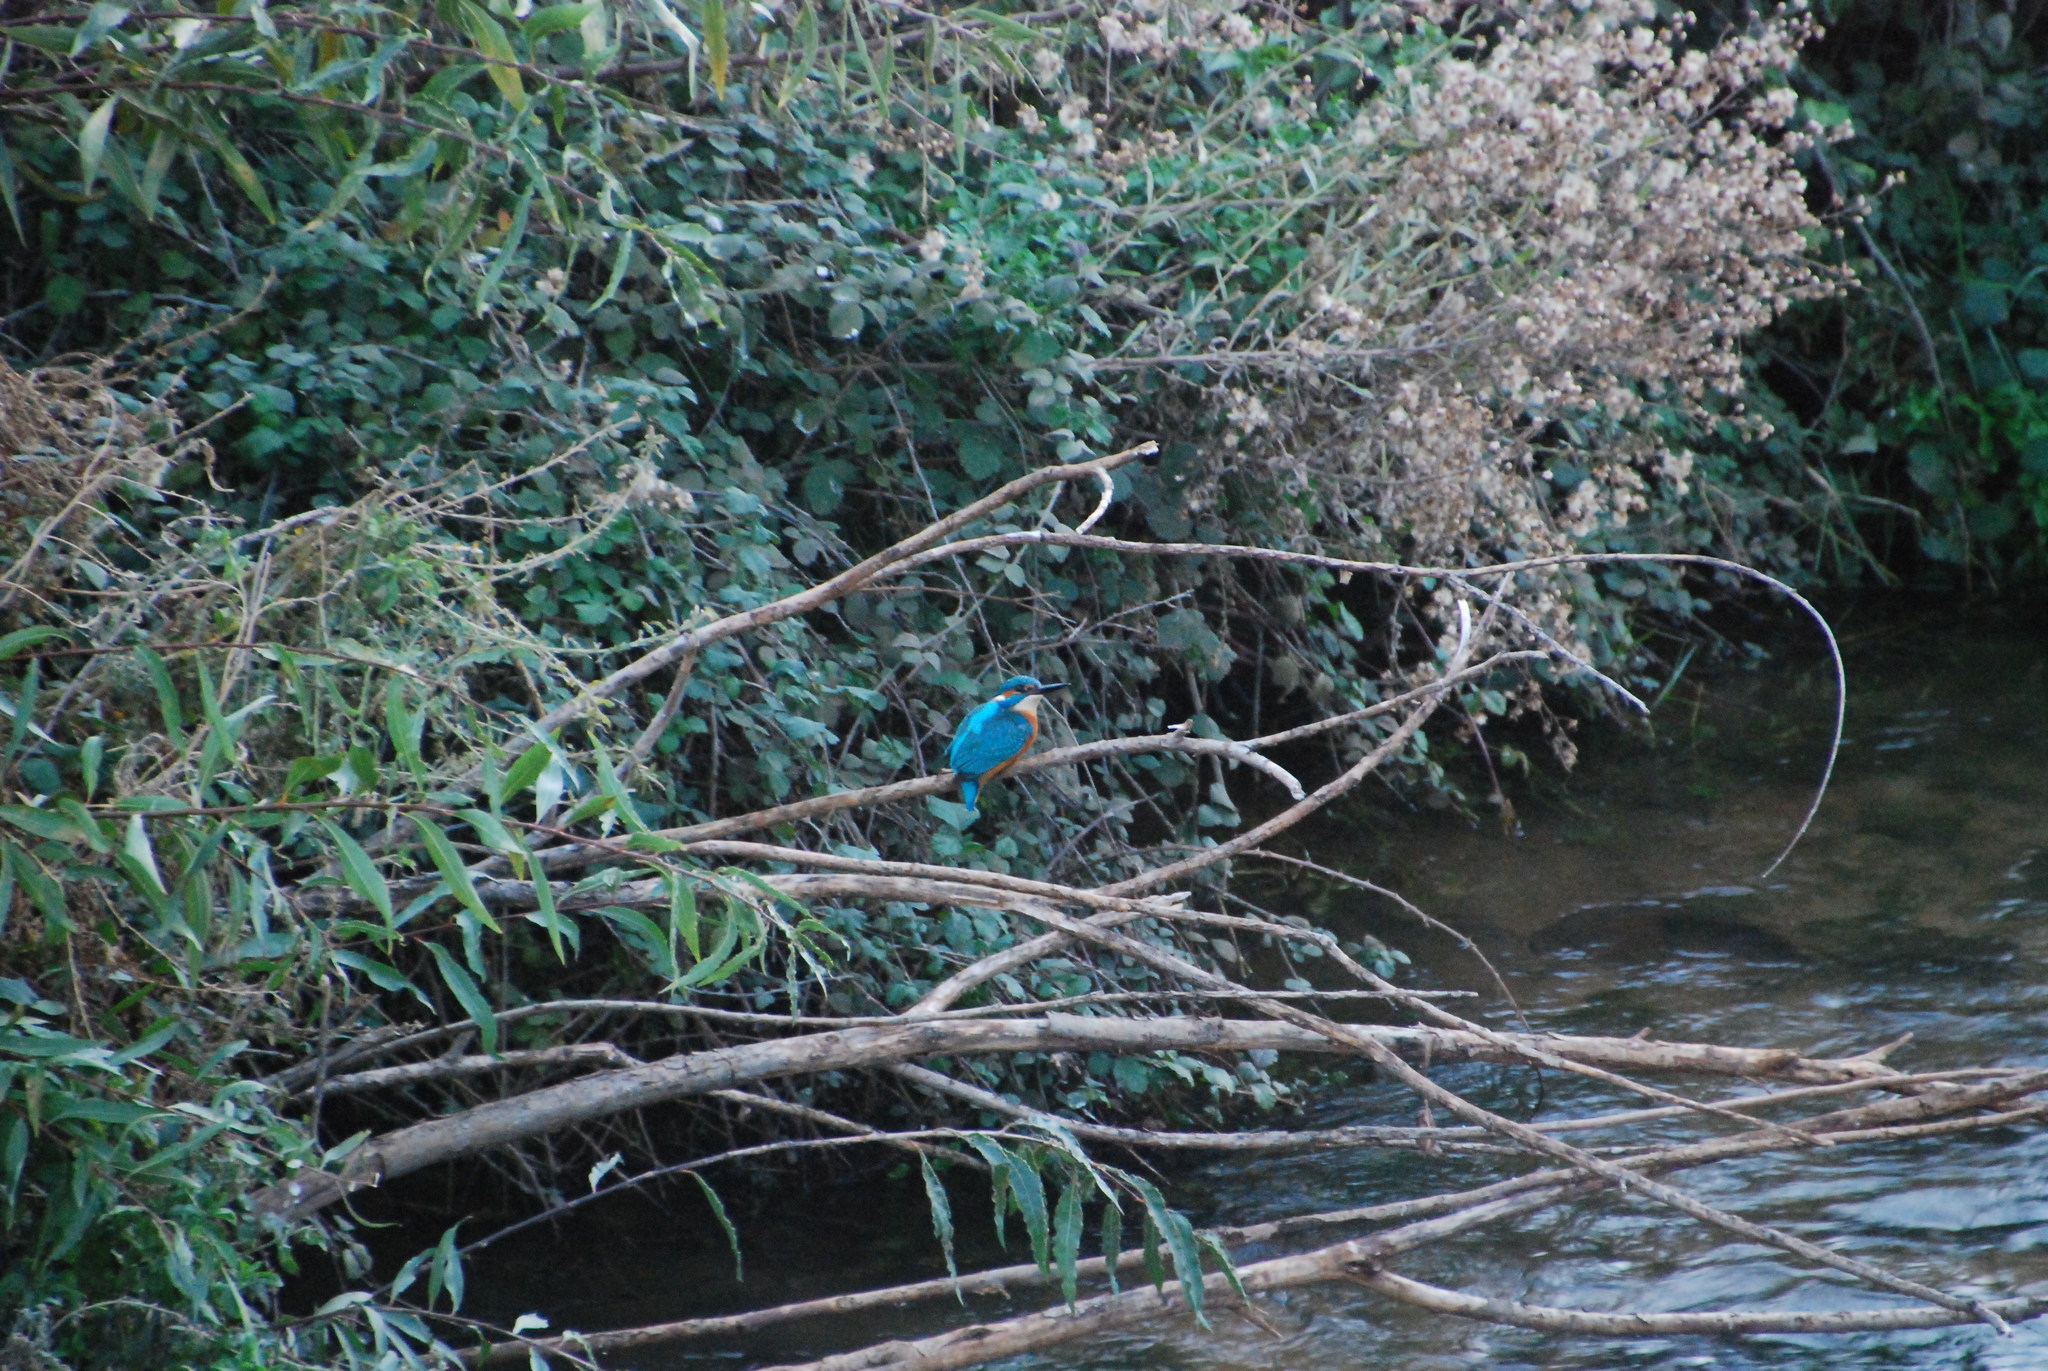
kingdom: Animalia
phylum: Chordata
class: Aves
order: Coraciiformes
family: Alcedinidae
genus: Alcedo
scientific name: Alcedo atthis
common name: Common kingfisher
